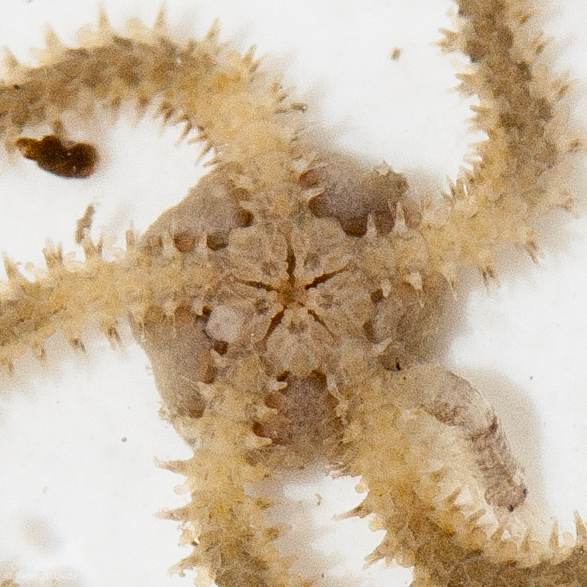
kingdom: Animalia
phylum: Echinodermata
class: Ophiuroidea
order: Amphilepidida
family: Amphiuridae
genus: Amphipholis
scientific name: Amphipholis squamata
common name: Brooding snake star
